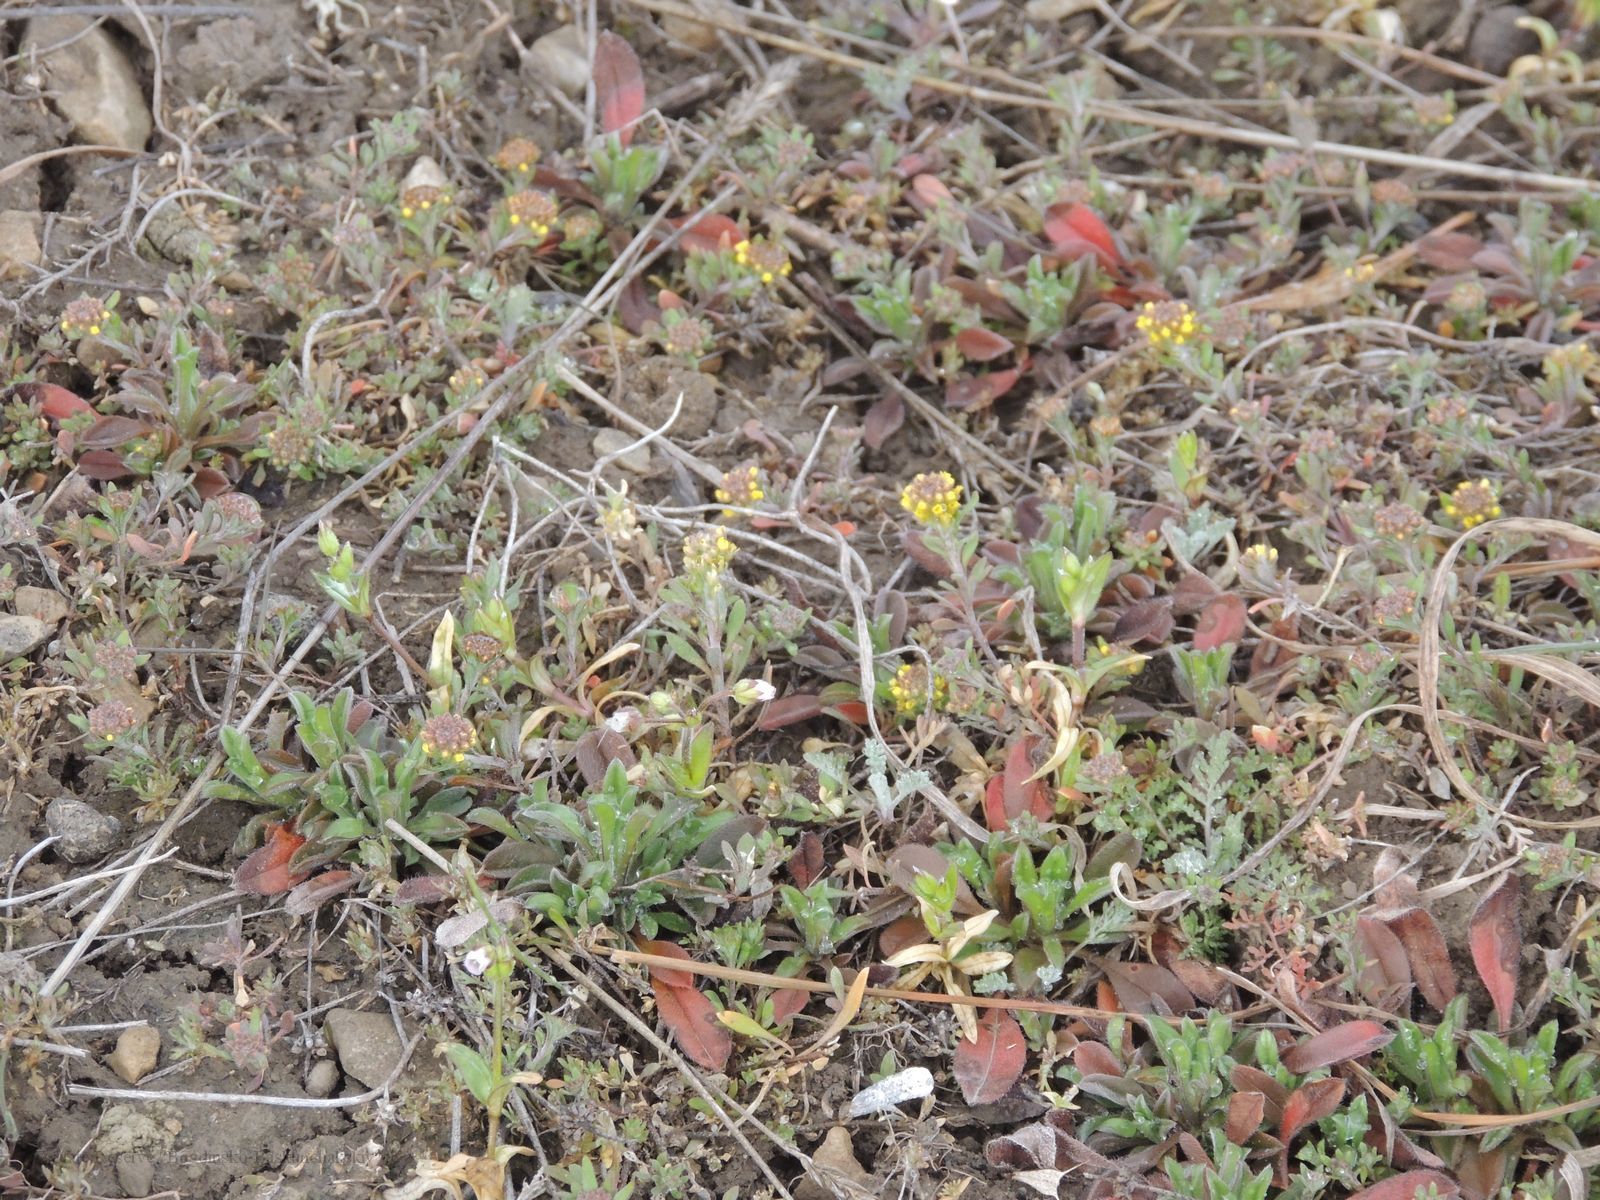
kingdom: Plantae
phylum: Tracheophyta
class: Magnoliopsida
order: Brassicales
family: Brassicaceae
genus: Alyssum
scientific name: Alyssum turkestanicum
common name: Desert alyssum
